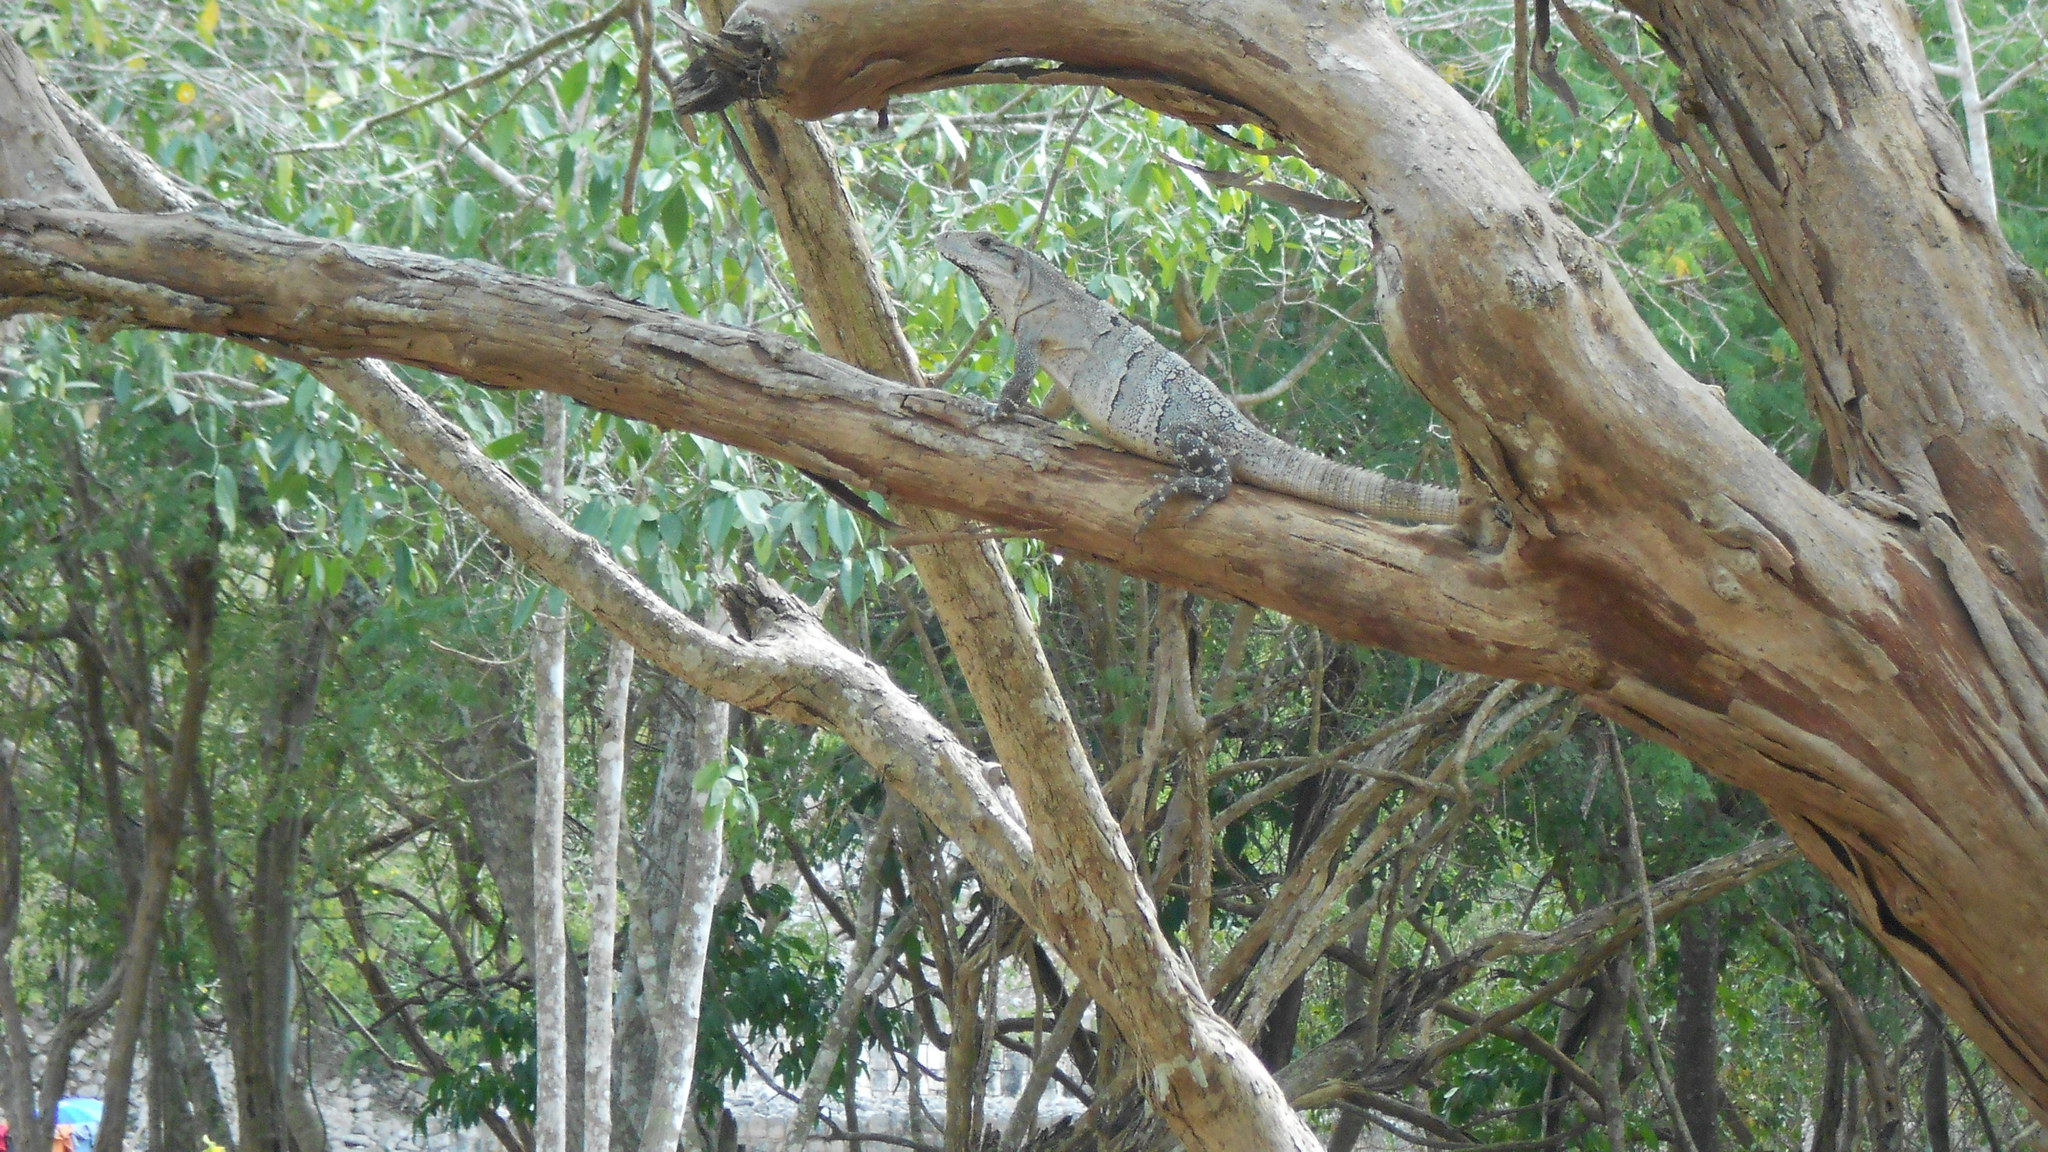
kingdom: Animalia
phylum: Chordata
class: Squamata
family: Iguanidae
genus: Ctenosaura
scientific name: Ctenosaura similis
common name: Black spiny-tailed iguana
